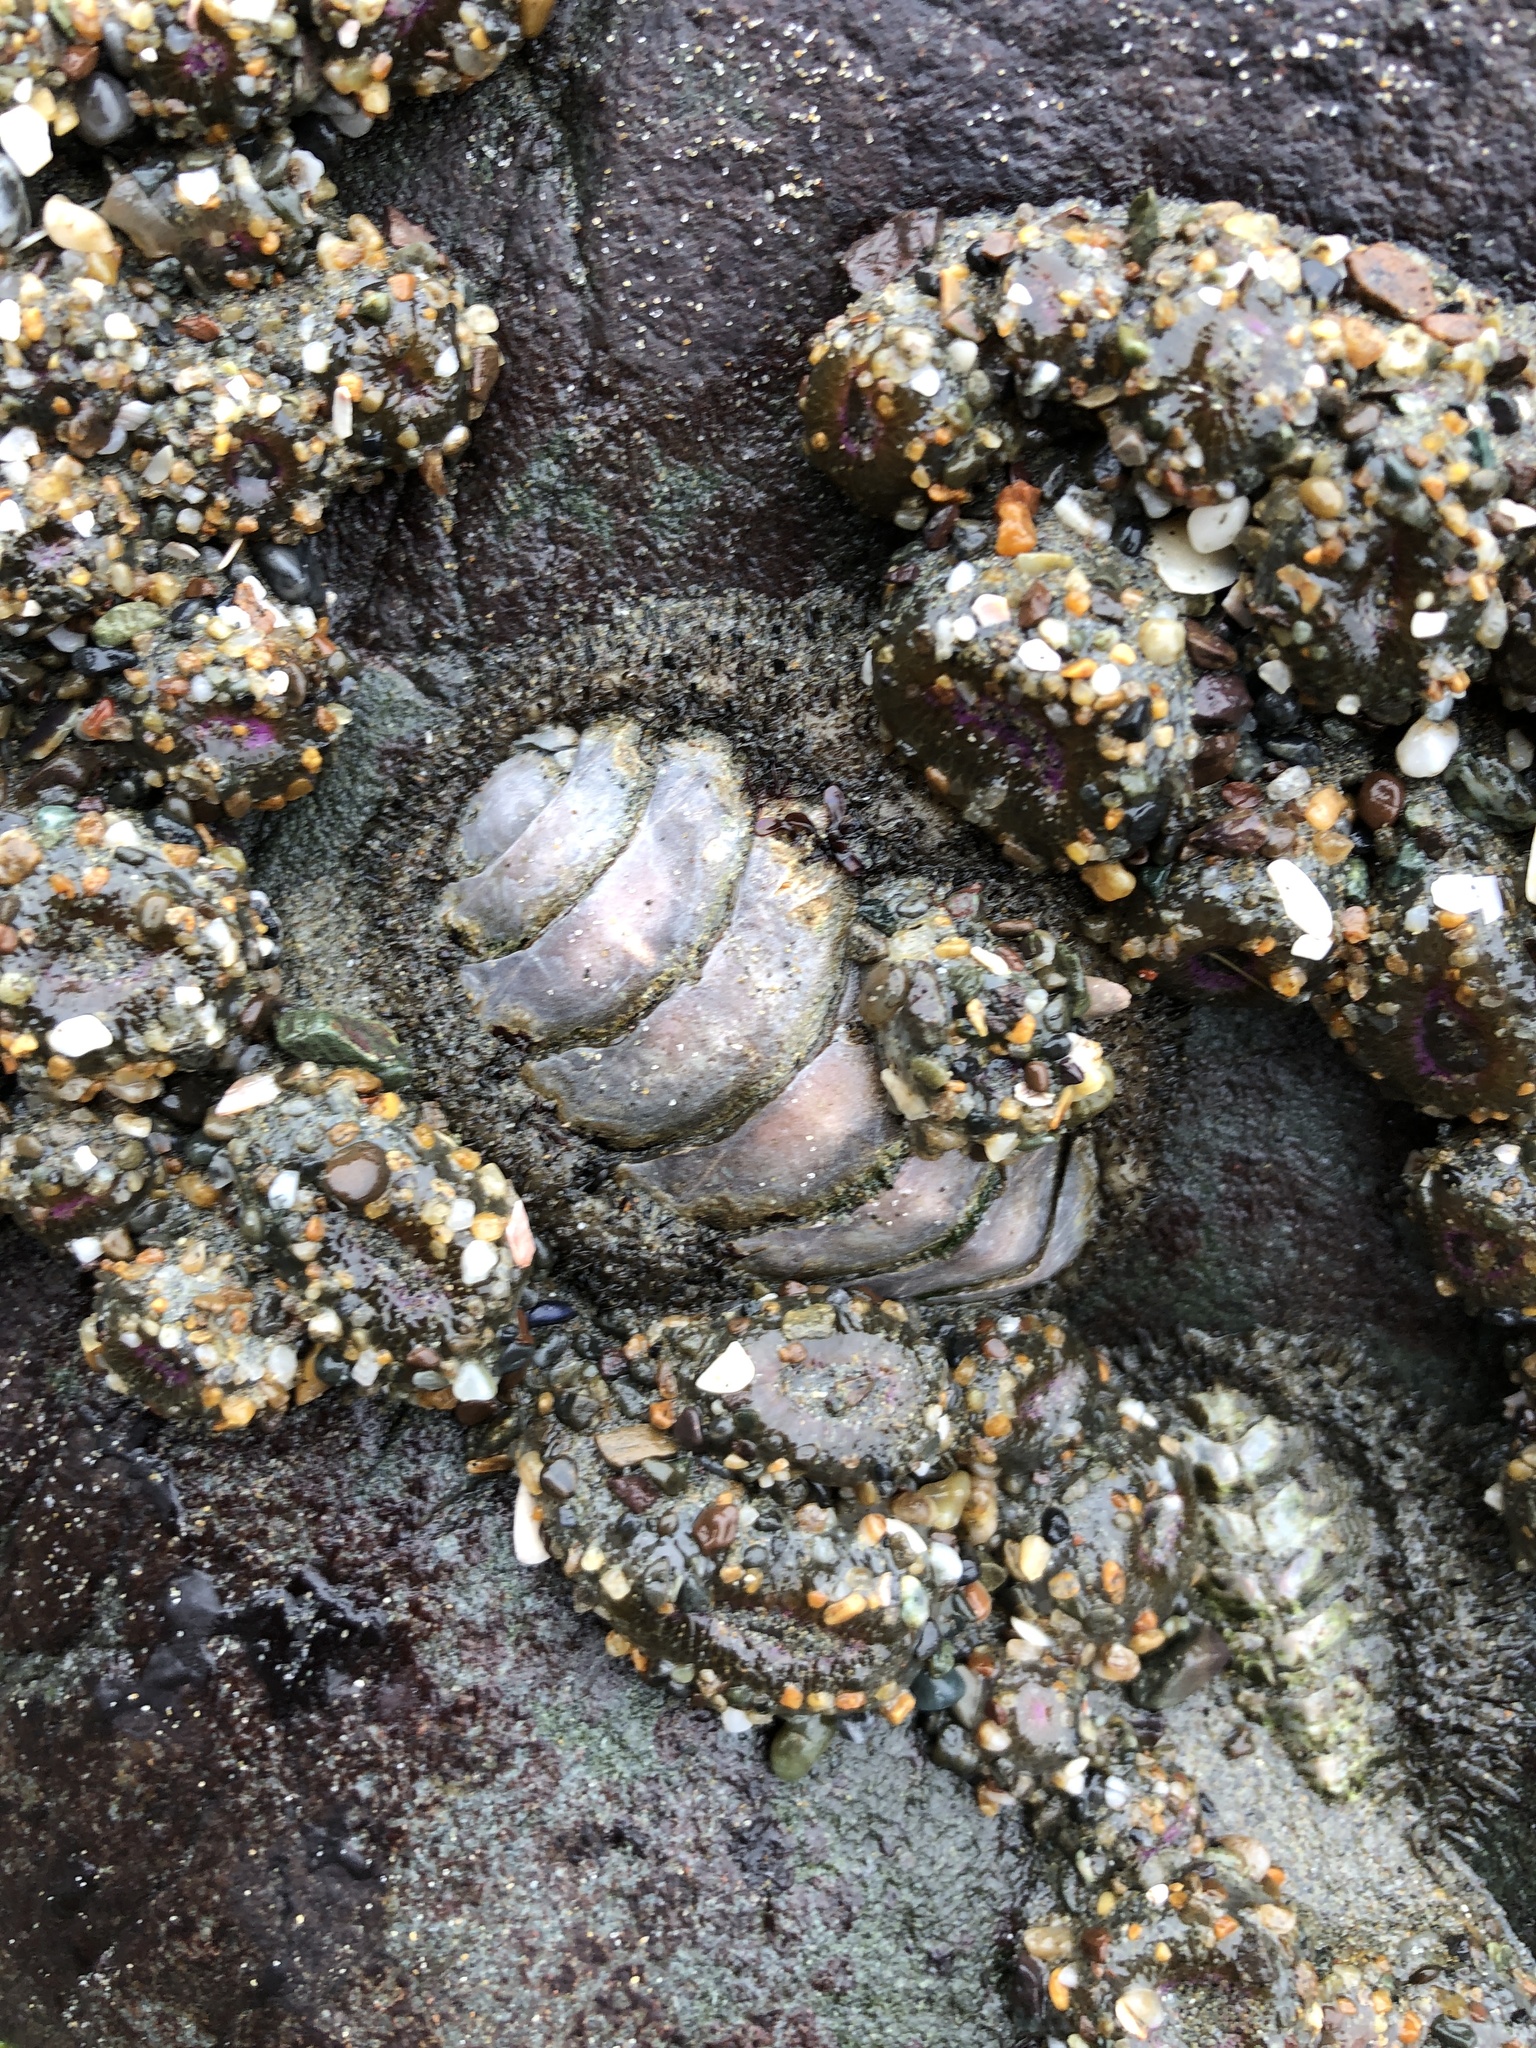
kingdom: Animalia
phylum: Mollusca
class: Polyplacophora
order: Chitonida
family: Mopaliidae
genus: Mopalia
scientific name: Mopalia muscosa
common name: Mossy chiton
